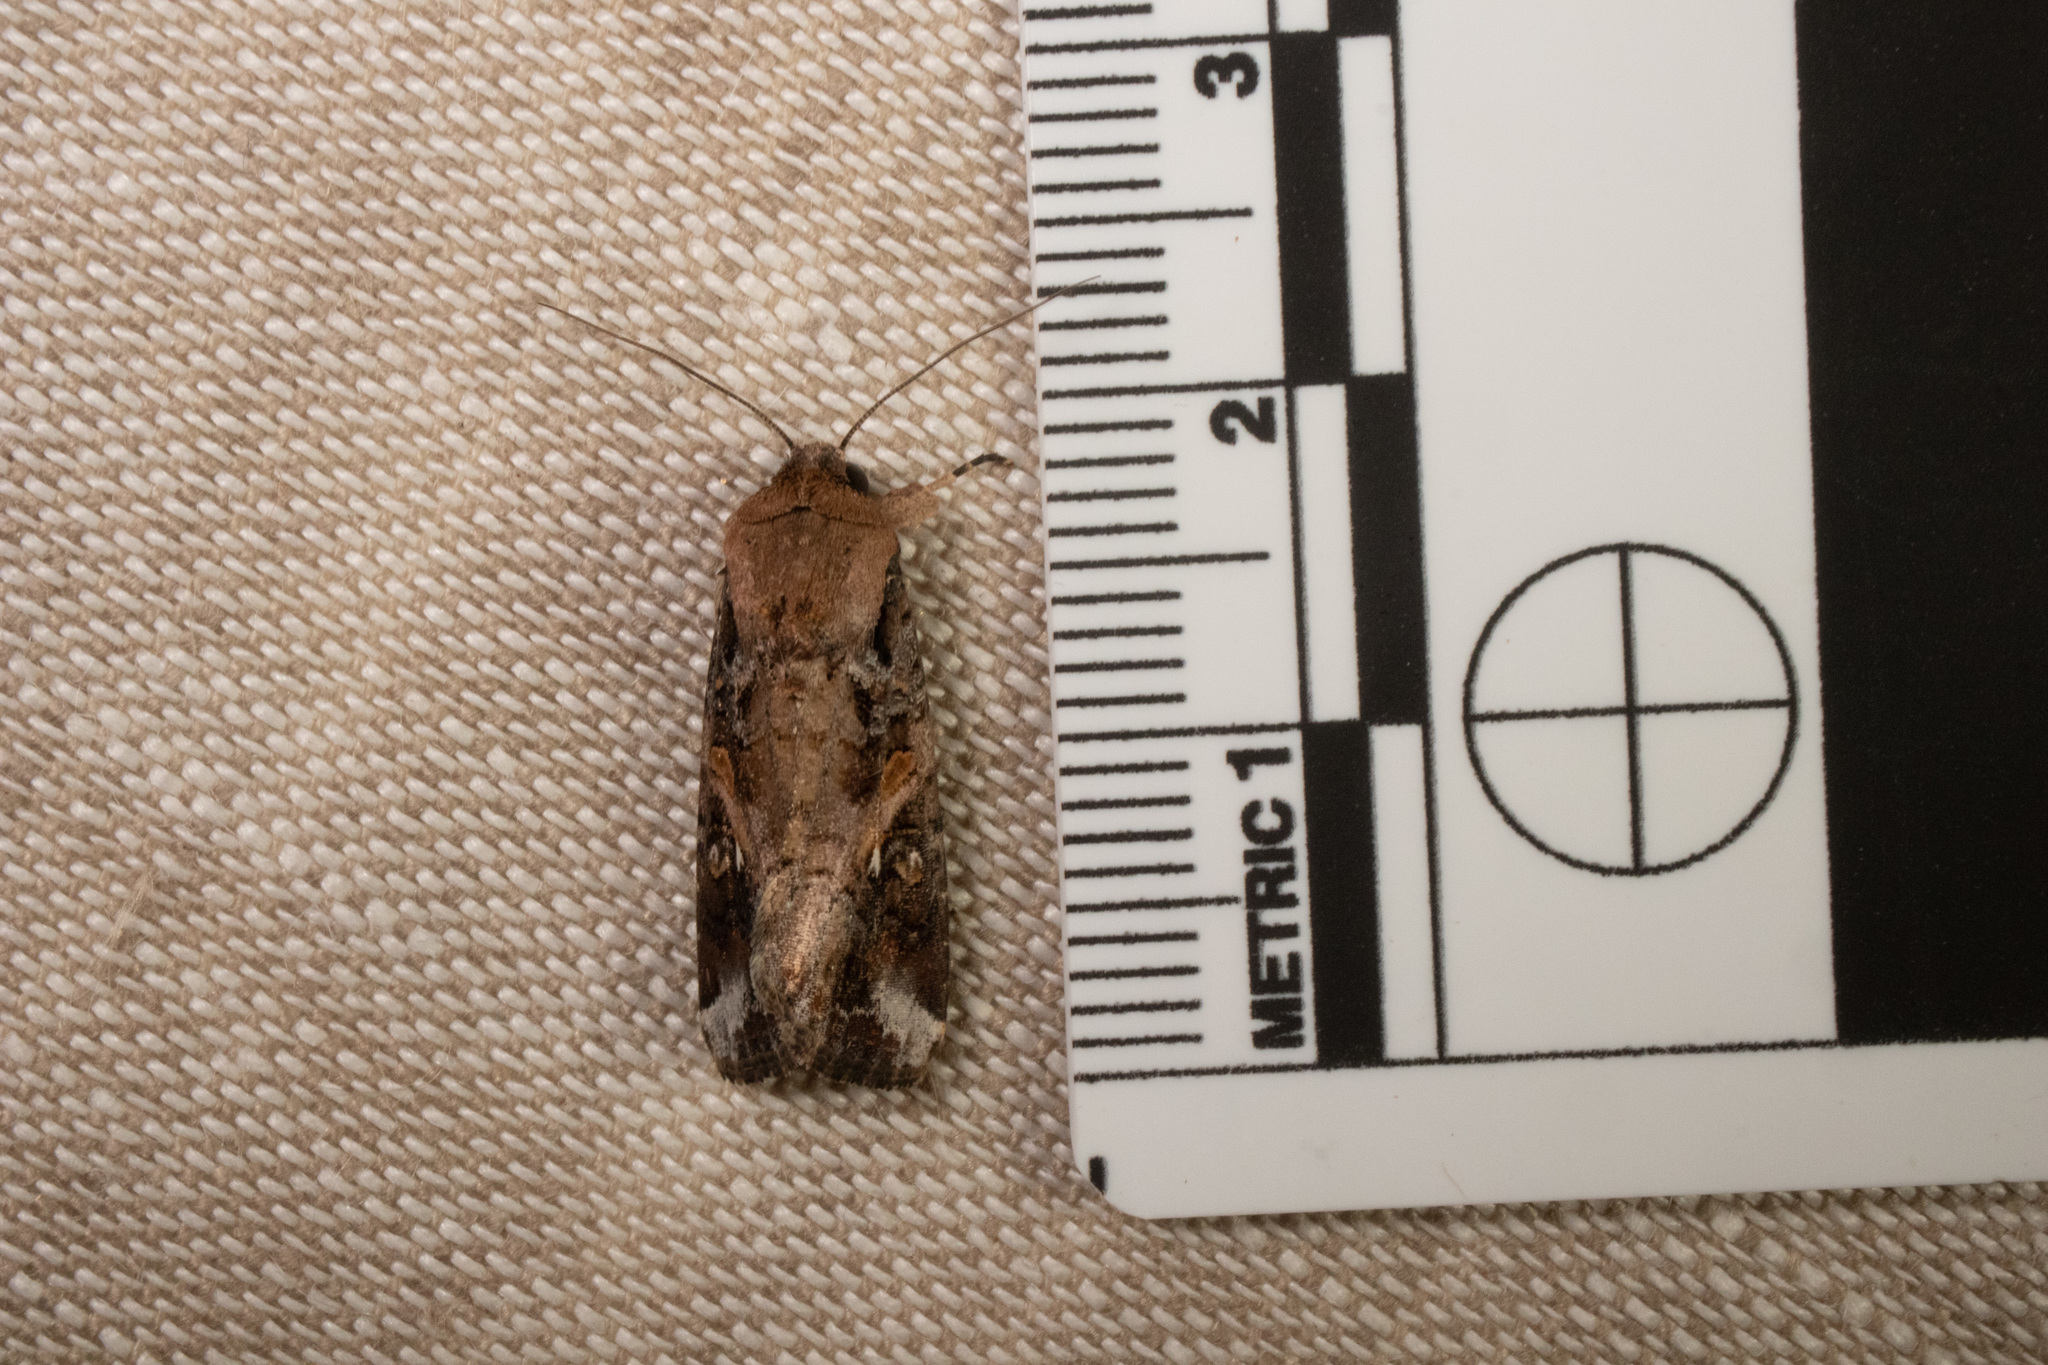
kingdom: Animalia
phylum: Arthropoda
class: Insecta
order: Lepidoptera
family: Noctuidae
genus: Spodoptera
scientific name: Spodoptera frugiperda
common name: Fall armyworm
